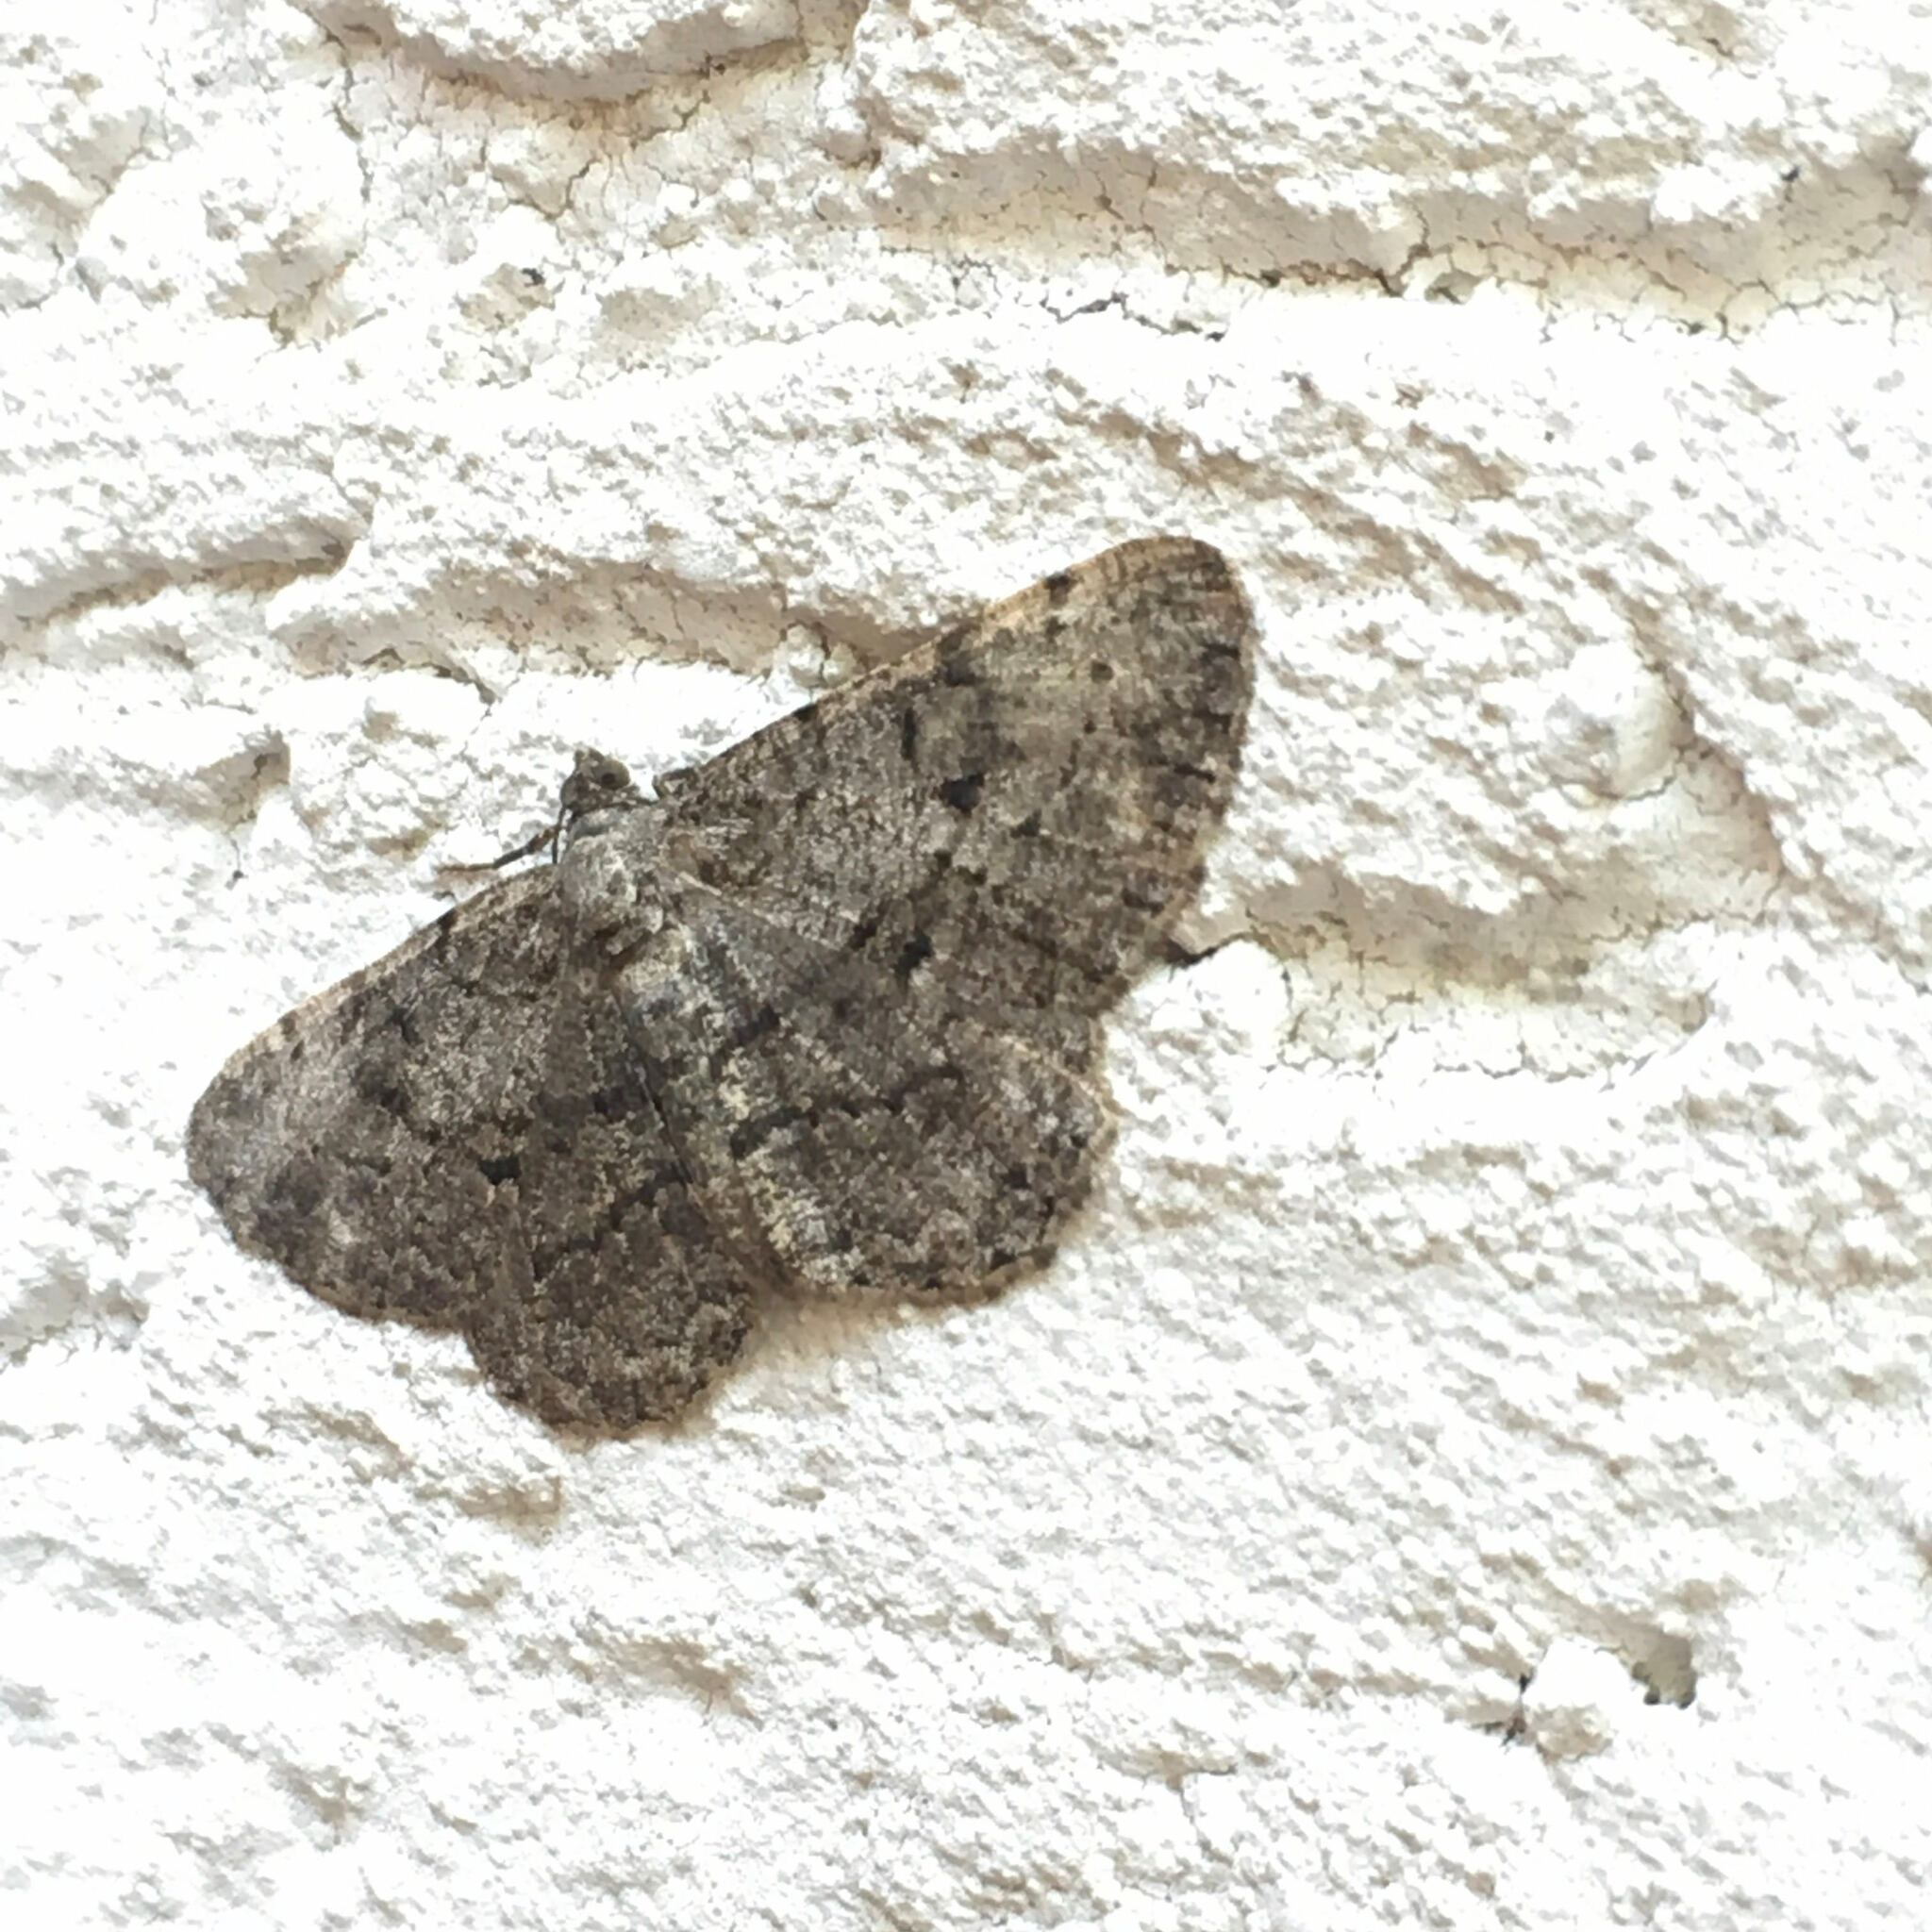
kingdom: Animalia
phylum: Arthropoda
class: Insecta
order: Lepidoptera
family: Geometridae
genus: Peribatodes
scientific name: Peribatodes rhomboidaria
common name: Willow beauty
